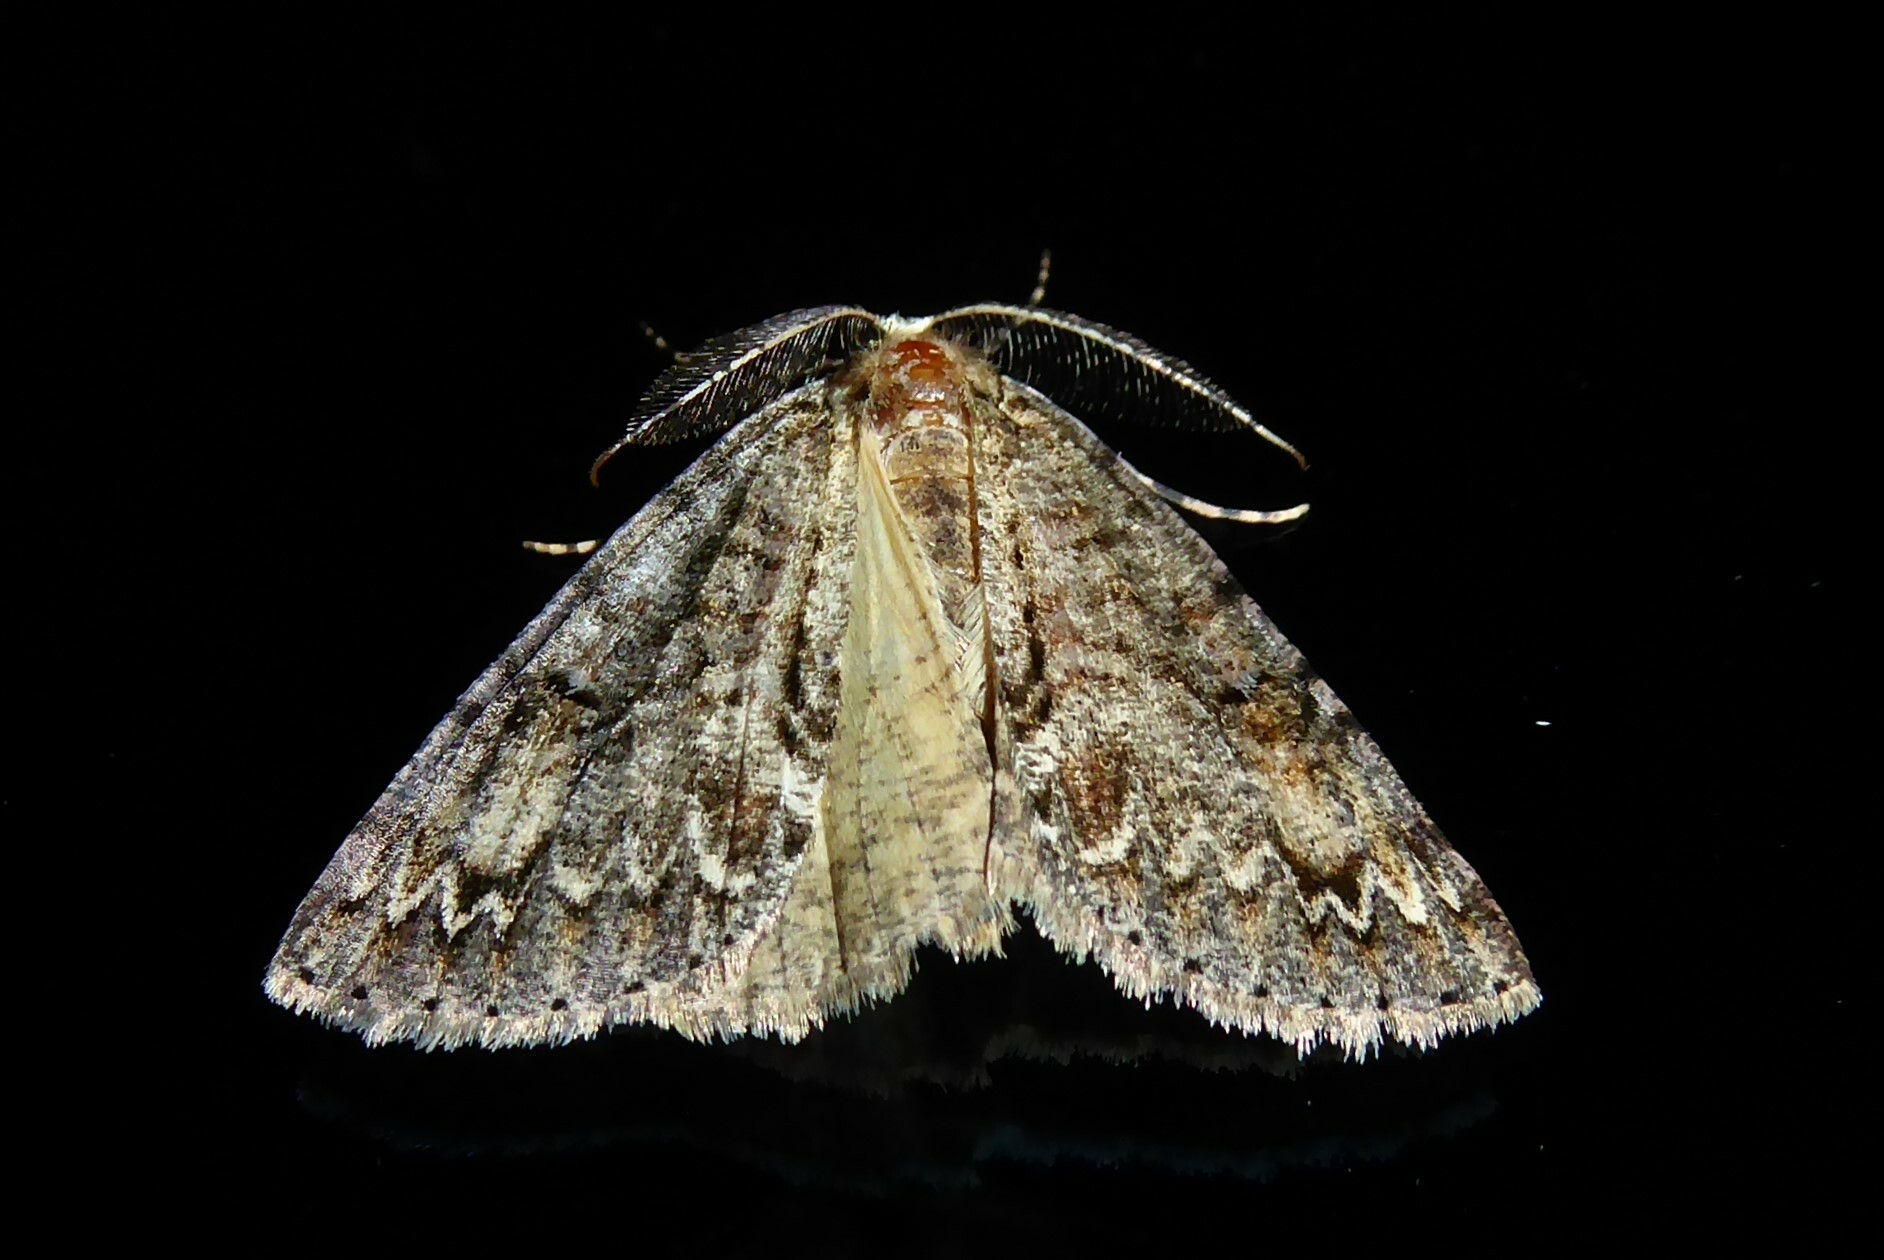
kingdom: Animalia
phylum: Arthropoda
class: Insecta
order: Lepidoptera
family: Geometridae
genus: Pseudocoremia
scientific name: Pseudocoremia suavis
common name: Common forest looper
